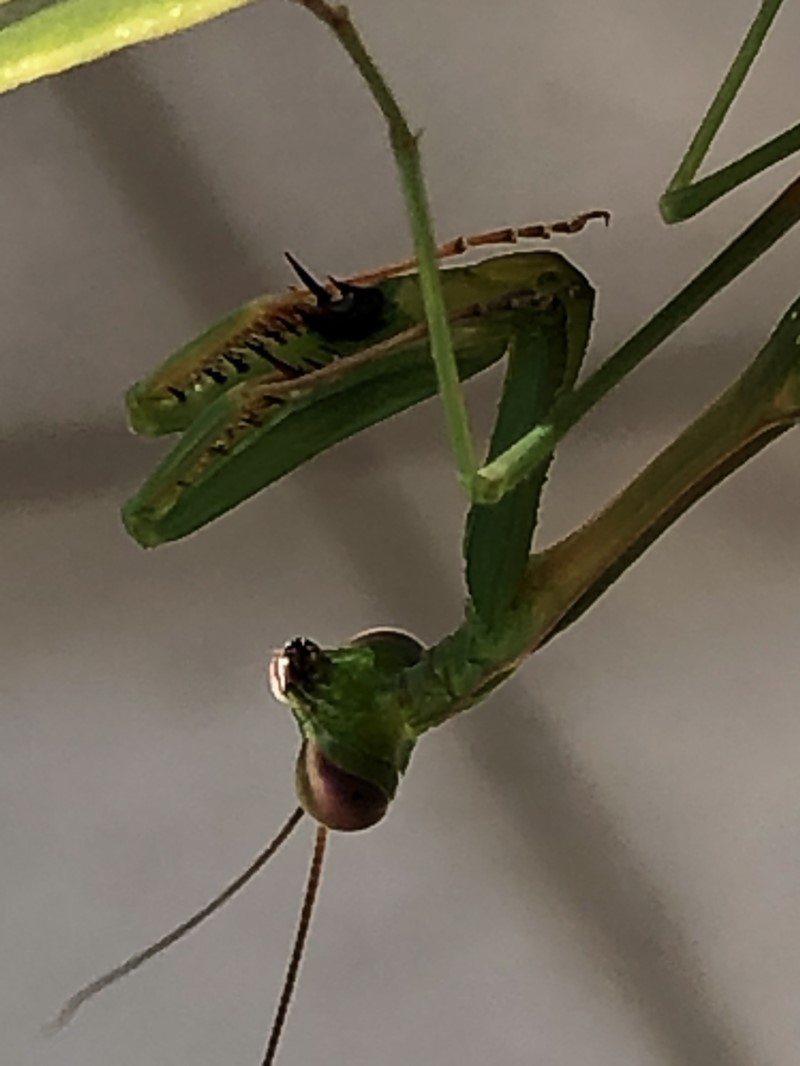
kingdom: Animalia
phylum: Arthropoda
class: Insecta
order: Mantodea
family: Mantidae
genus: Pseudomantis
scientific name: Pseudomantis albofimbriata
